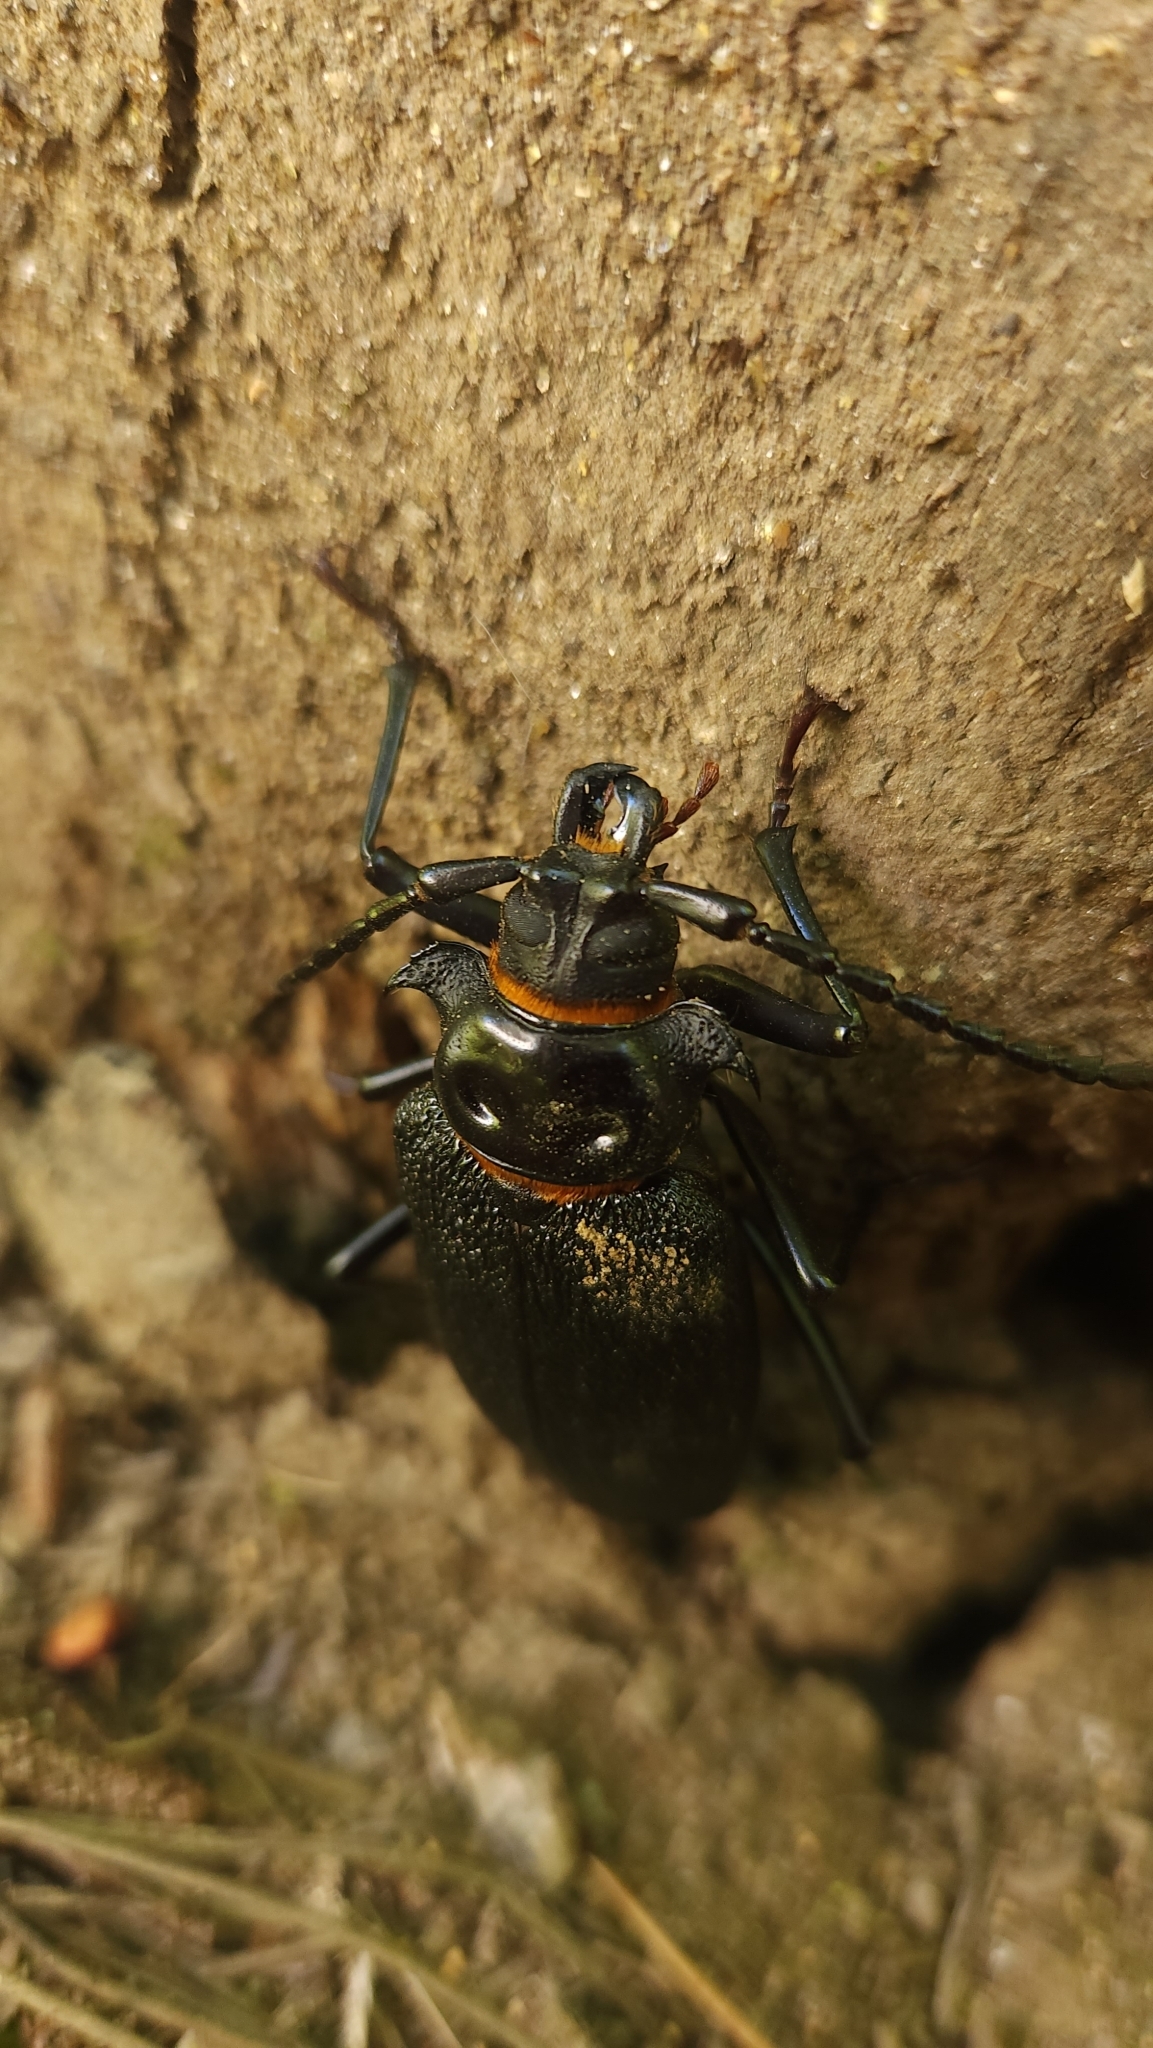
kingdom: Animalia
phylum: Arthropoda
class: Insecta
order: Coleoptera
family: Cerambycidae
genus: Acanthinodera
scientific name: Acanthinodera cumingii
